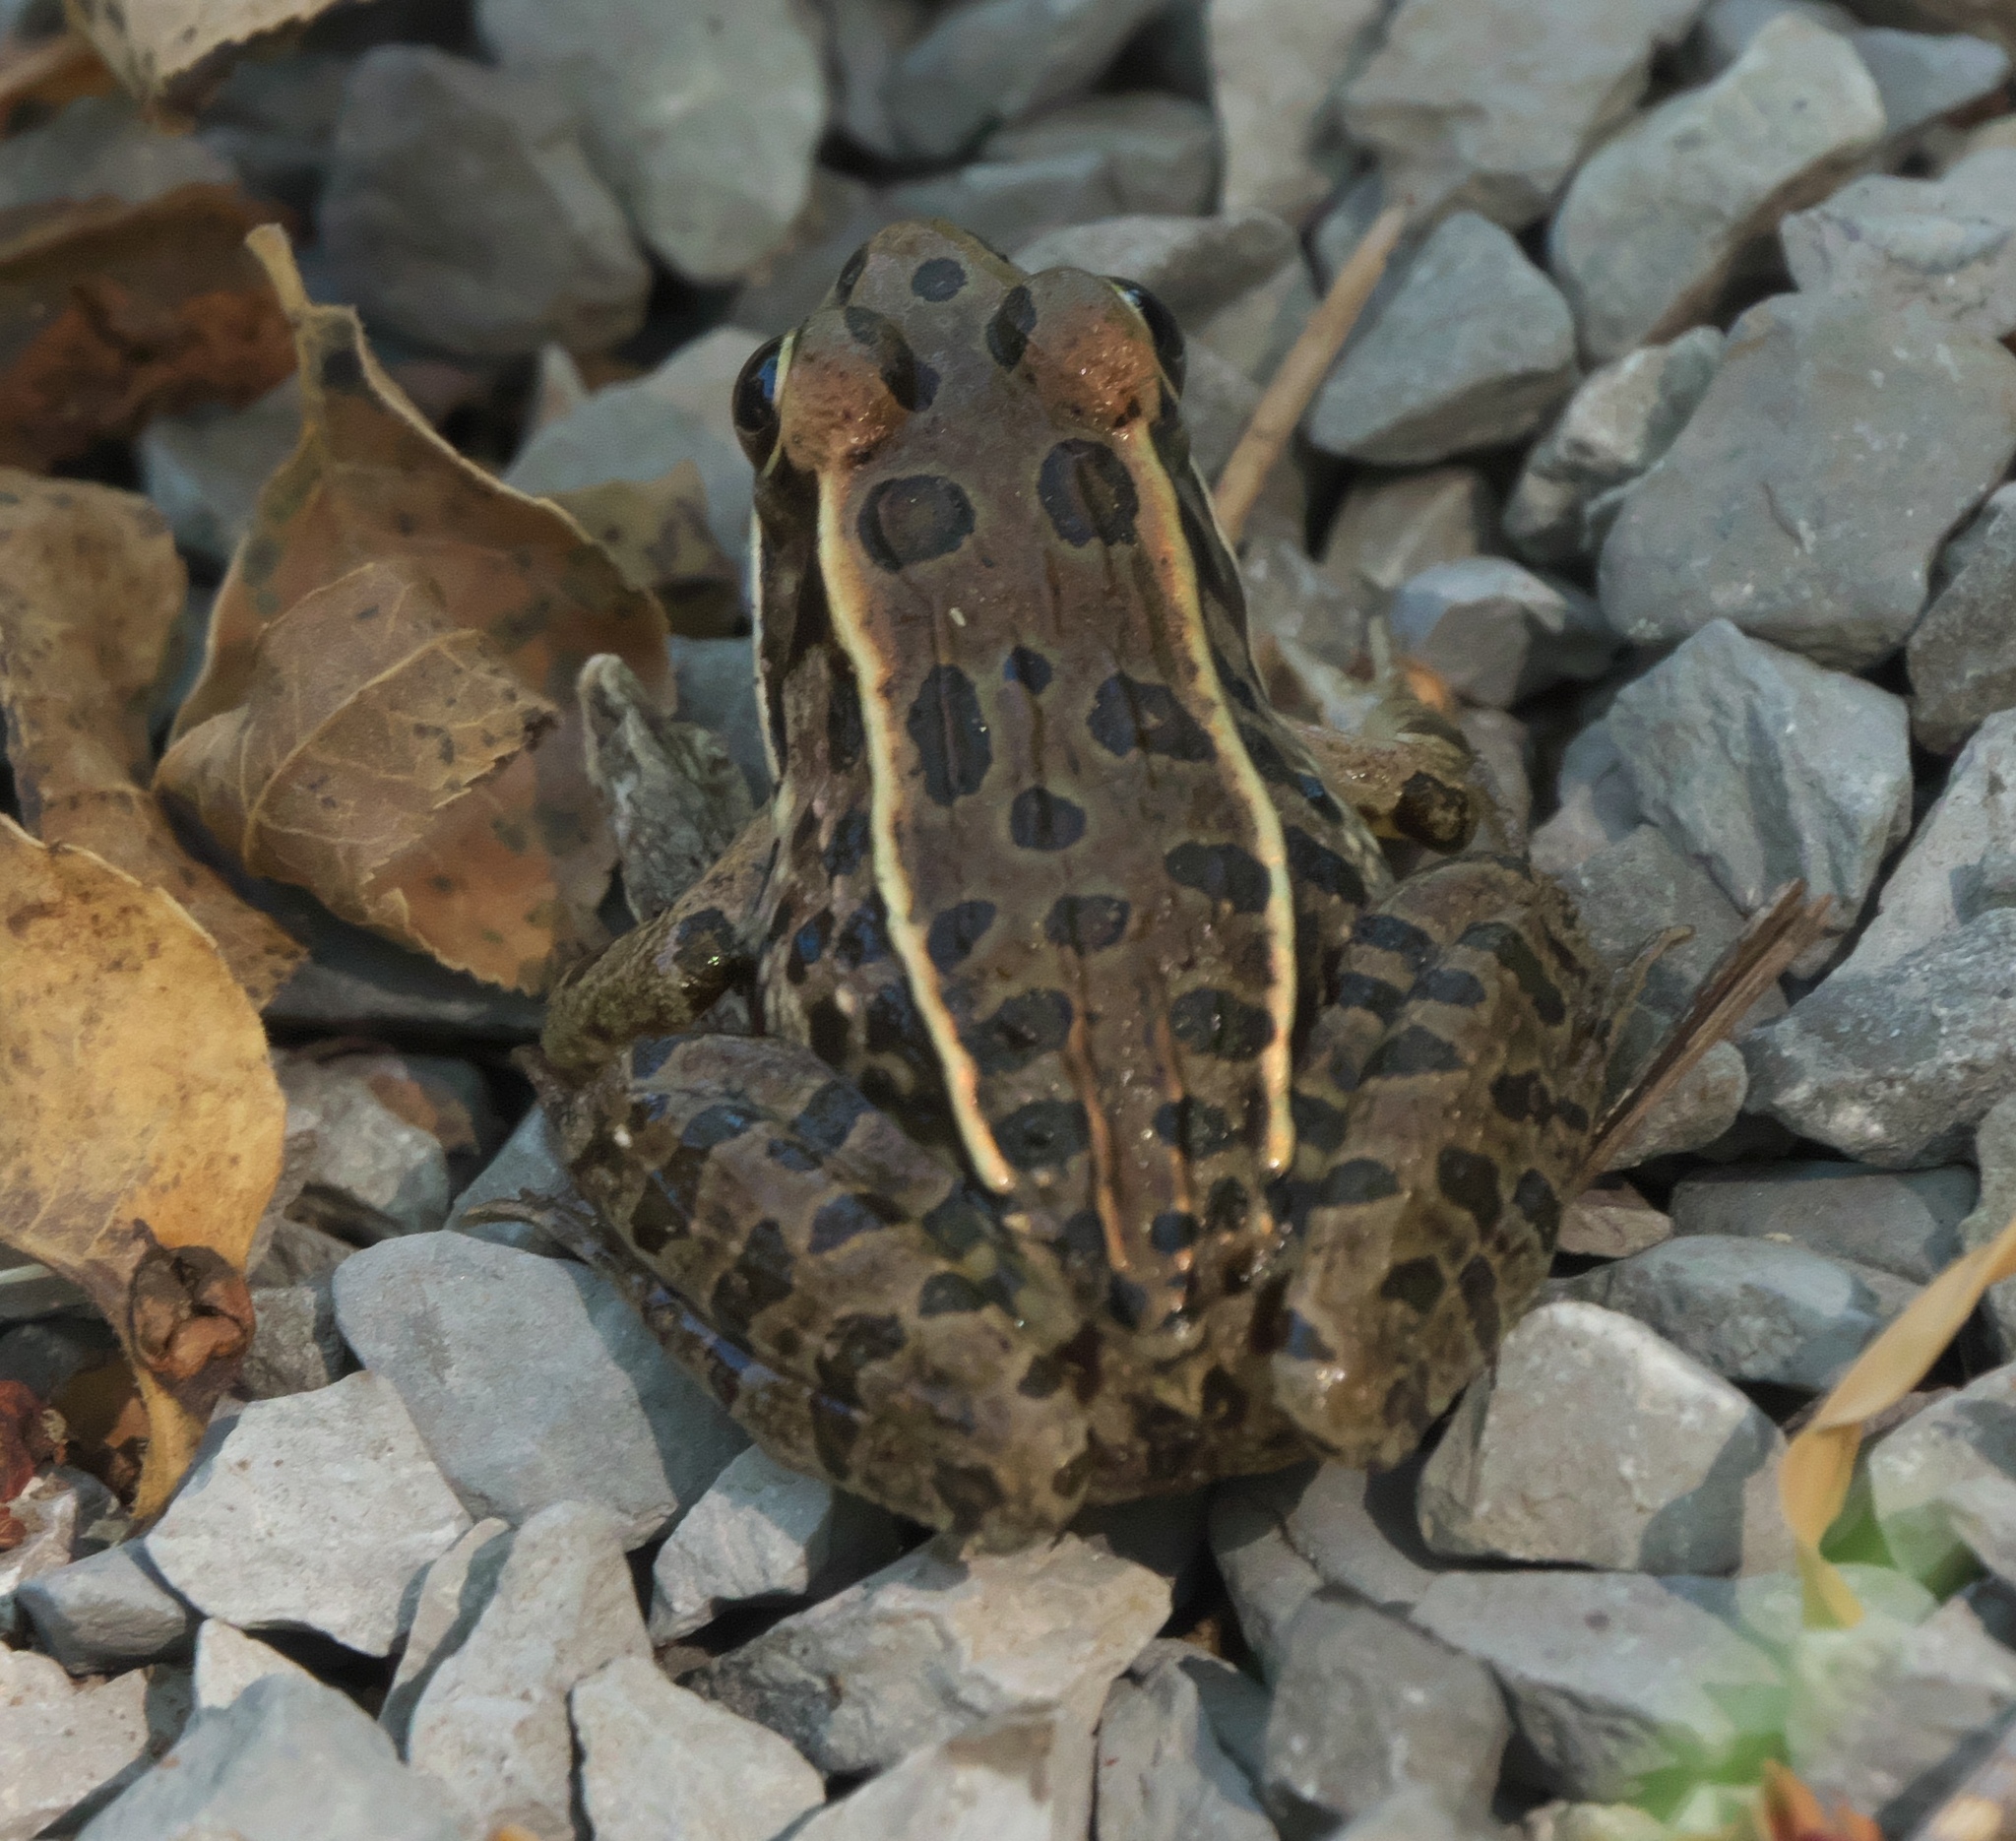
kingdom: Animalia
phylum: Chordata
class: Amphibia
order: Anura
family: Ranidae
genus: Lithobates
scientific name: Lithobates sphenocephalus
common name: Southern leopard frog
